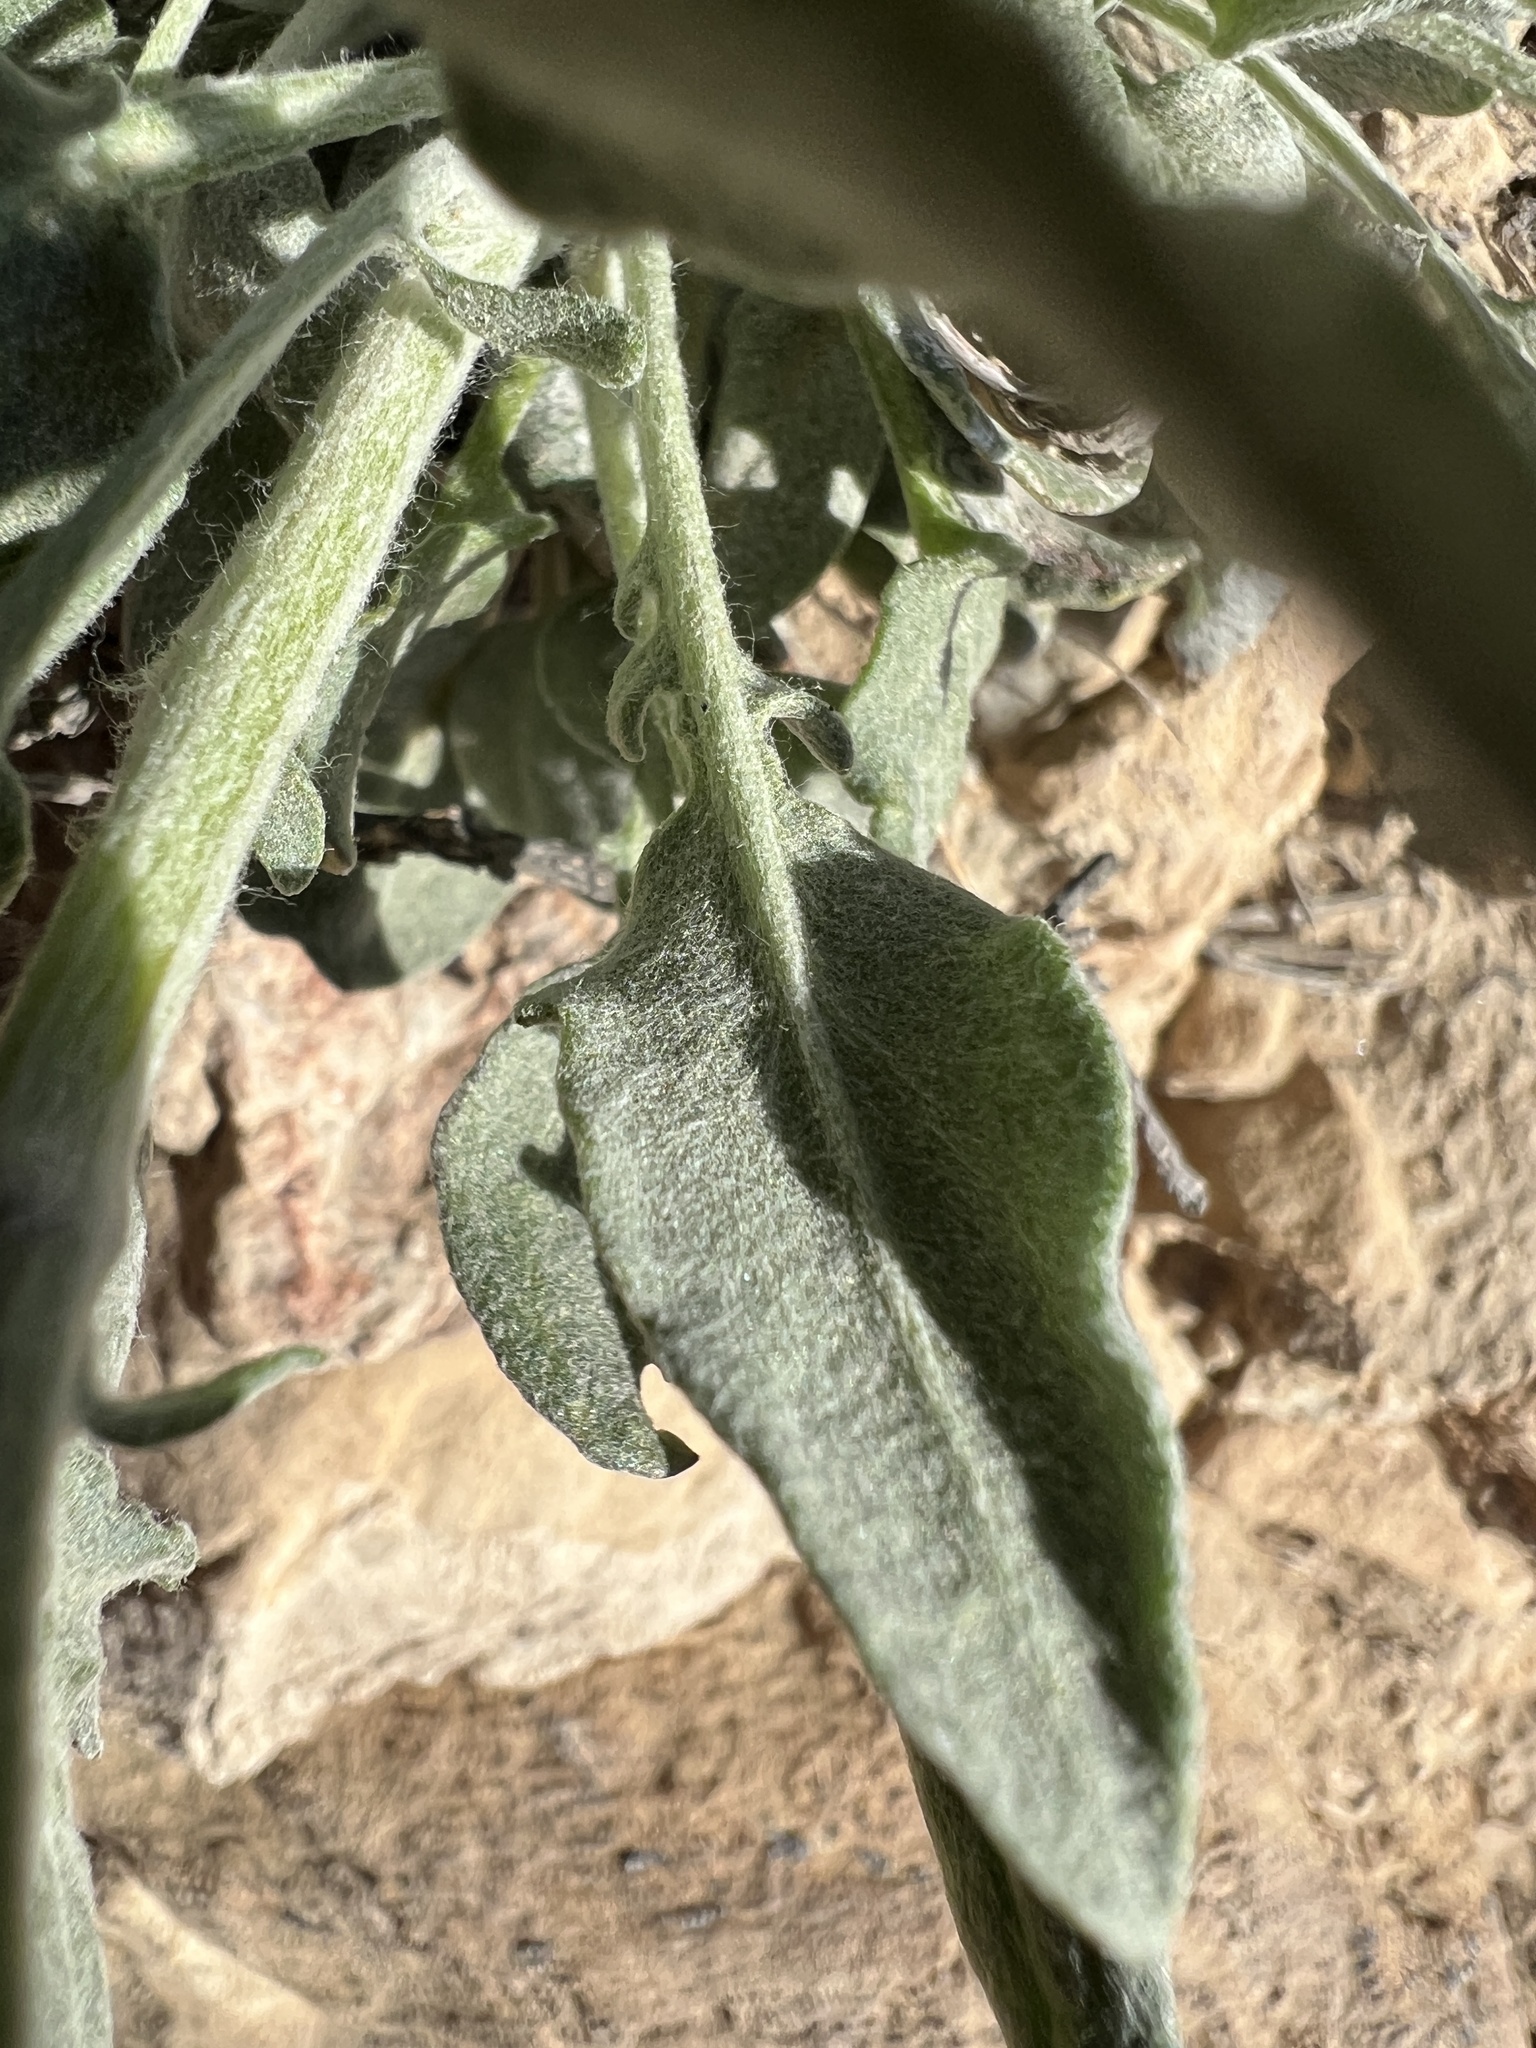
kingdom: Plantae
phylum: Tracheophyta
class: Magnoliopsida
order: Asterales
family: Asteraceae
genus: Packera
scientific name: Packera cana
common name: Woolly groundsel
